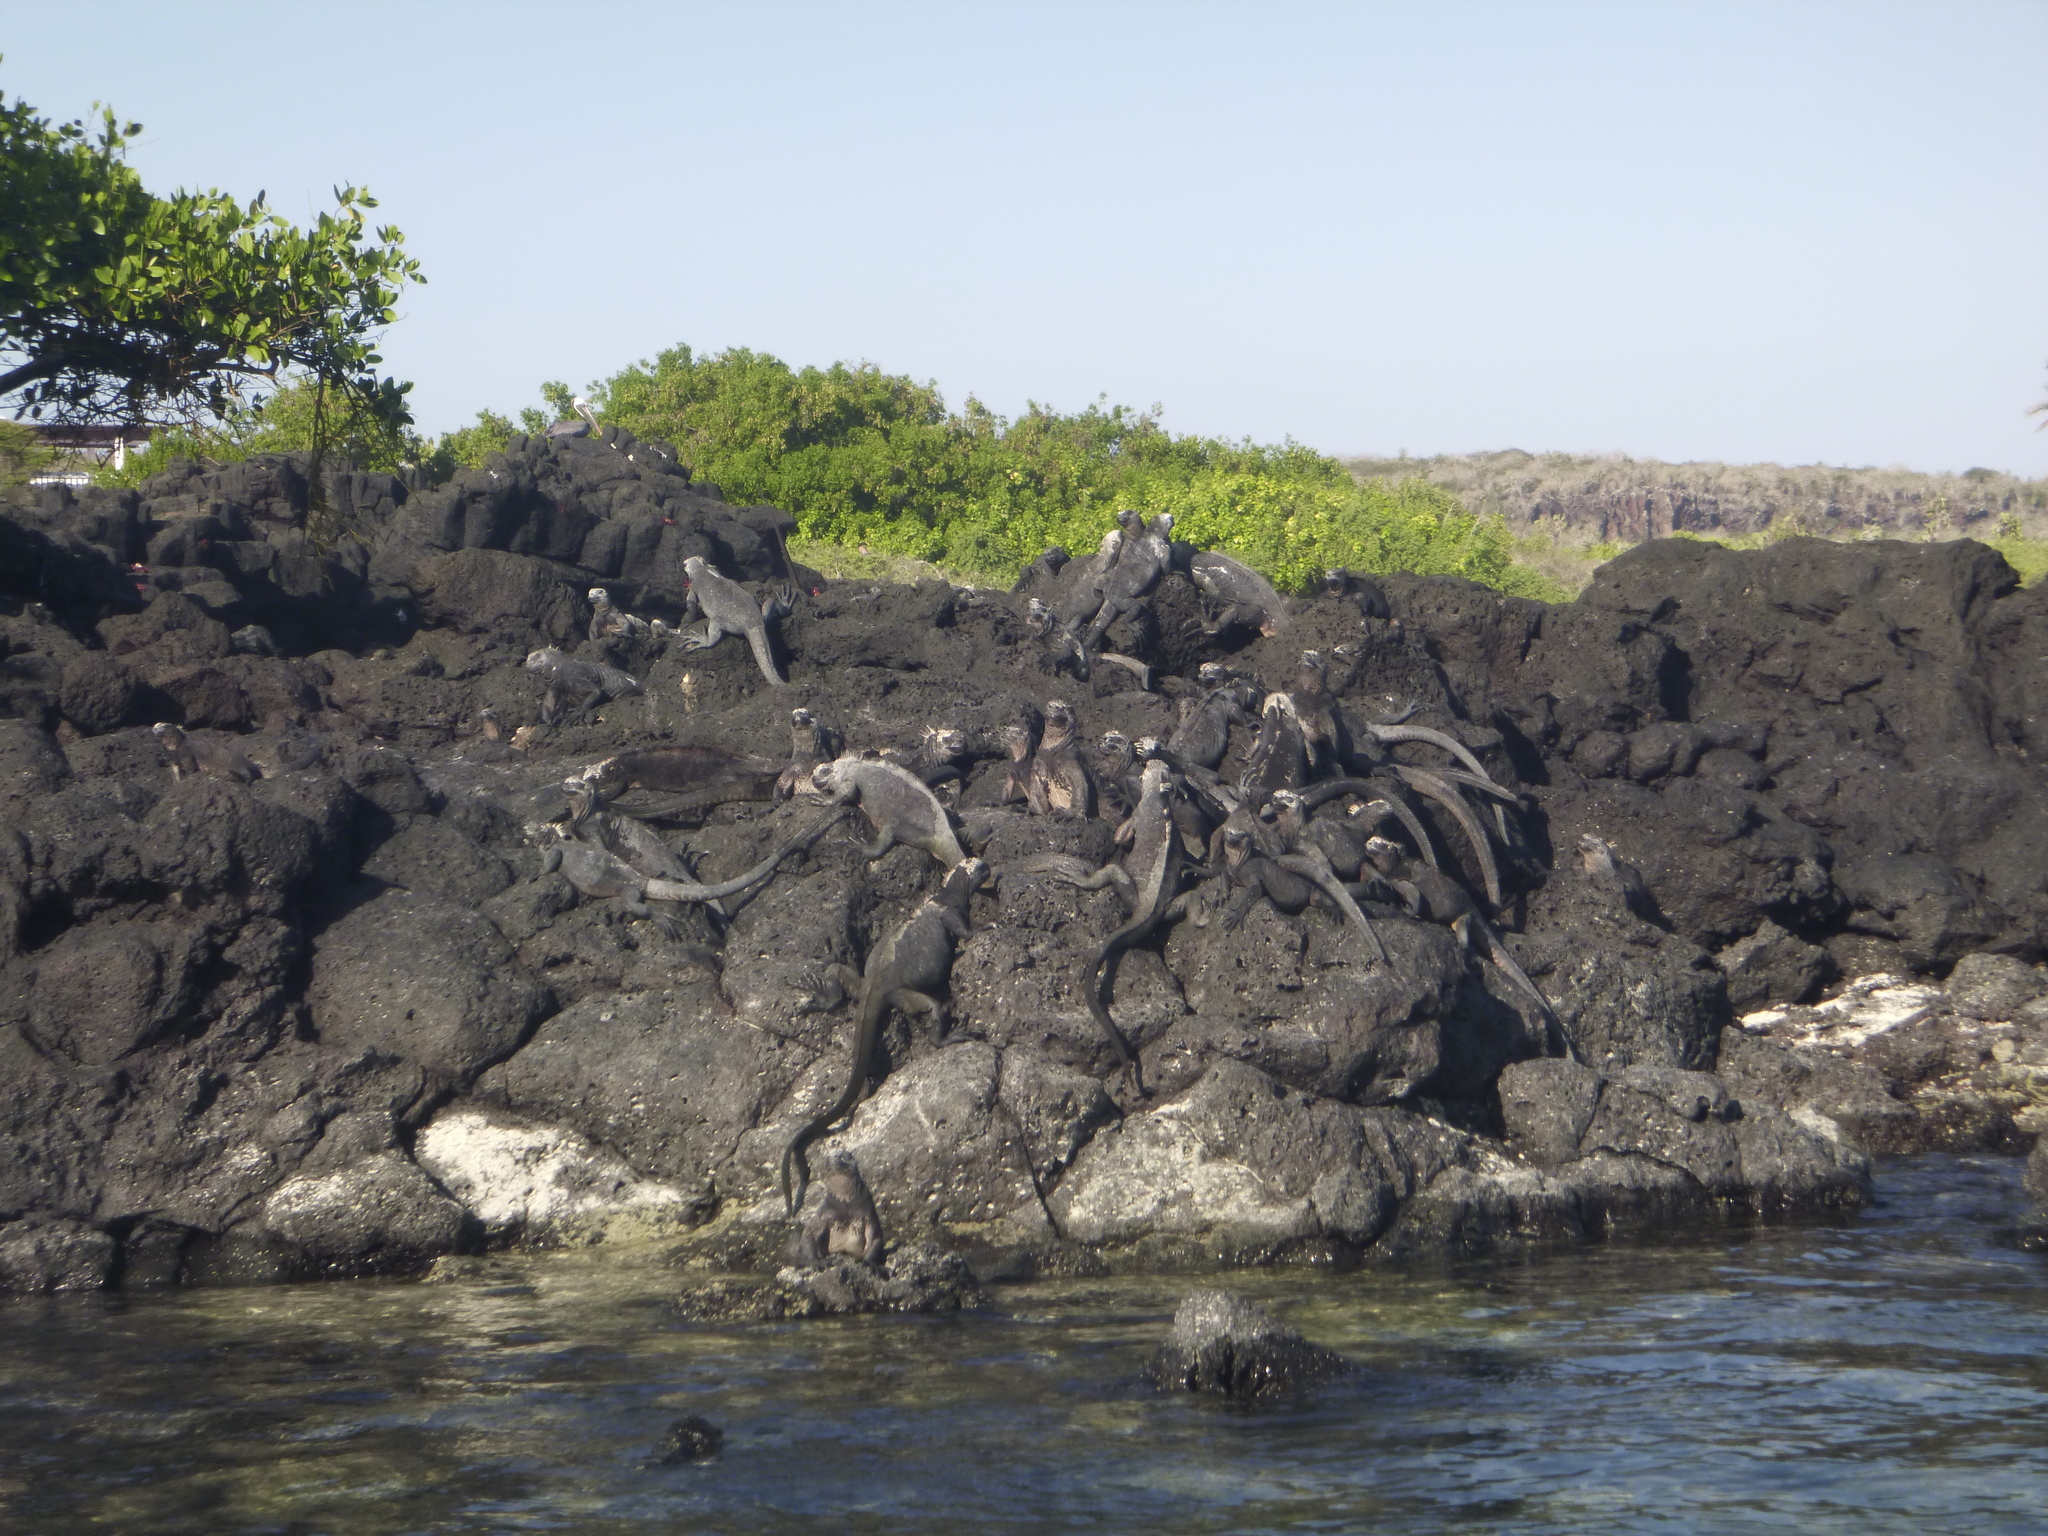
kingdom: Animalia
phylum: Chordata
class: Squamata
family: Iguanidae
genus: Amblyrhynchus
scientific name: Amblyrhynchus cristatus
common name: Marine iguana
